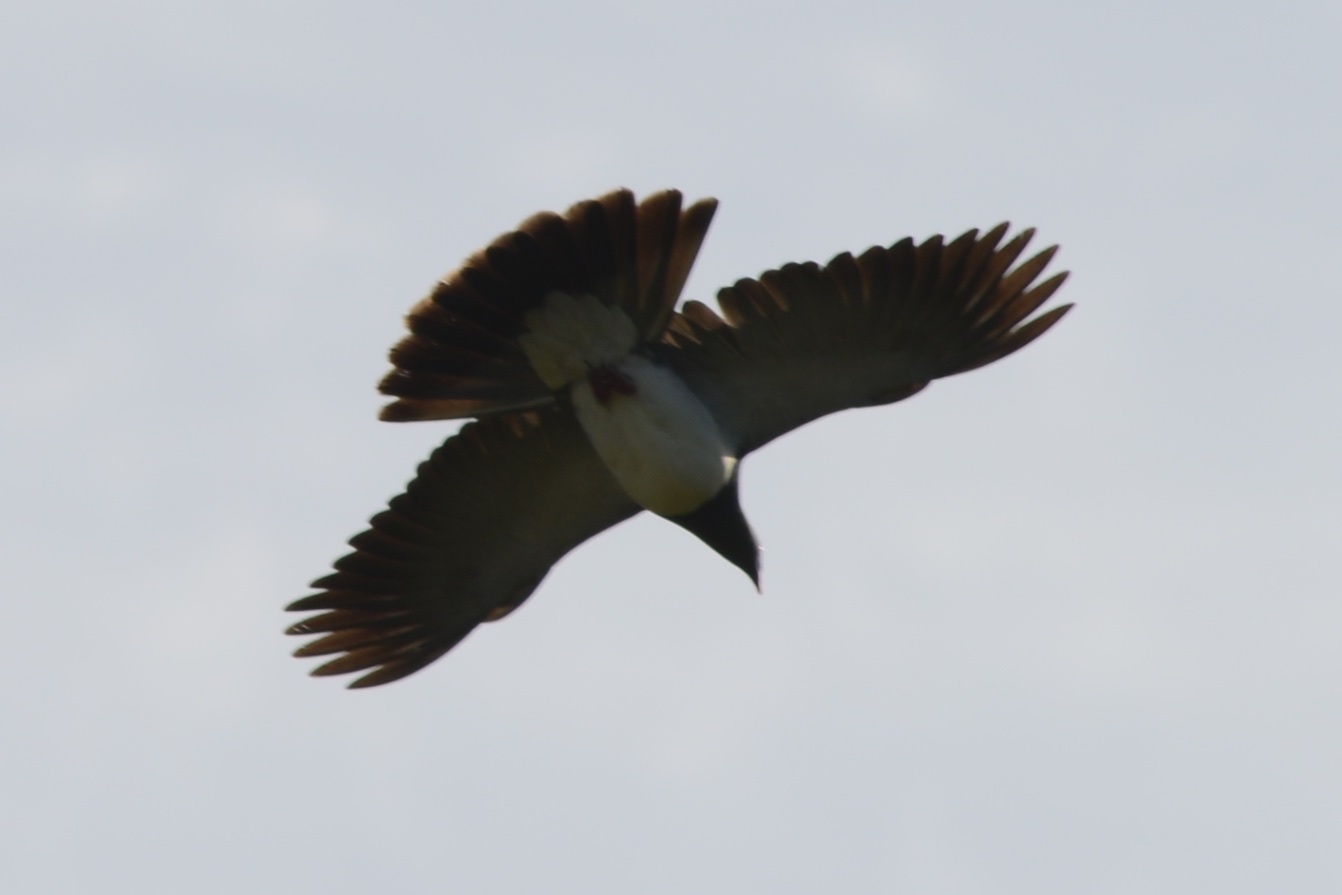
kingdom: Animalia
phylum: Chordata
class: Aves
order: Columbiformes
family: Columbidae
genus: Hemiphaga
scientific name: Hemiphaga novaeseelandiae
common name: New zealand pigeon
